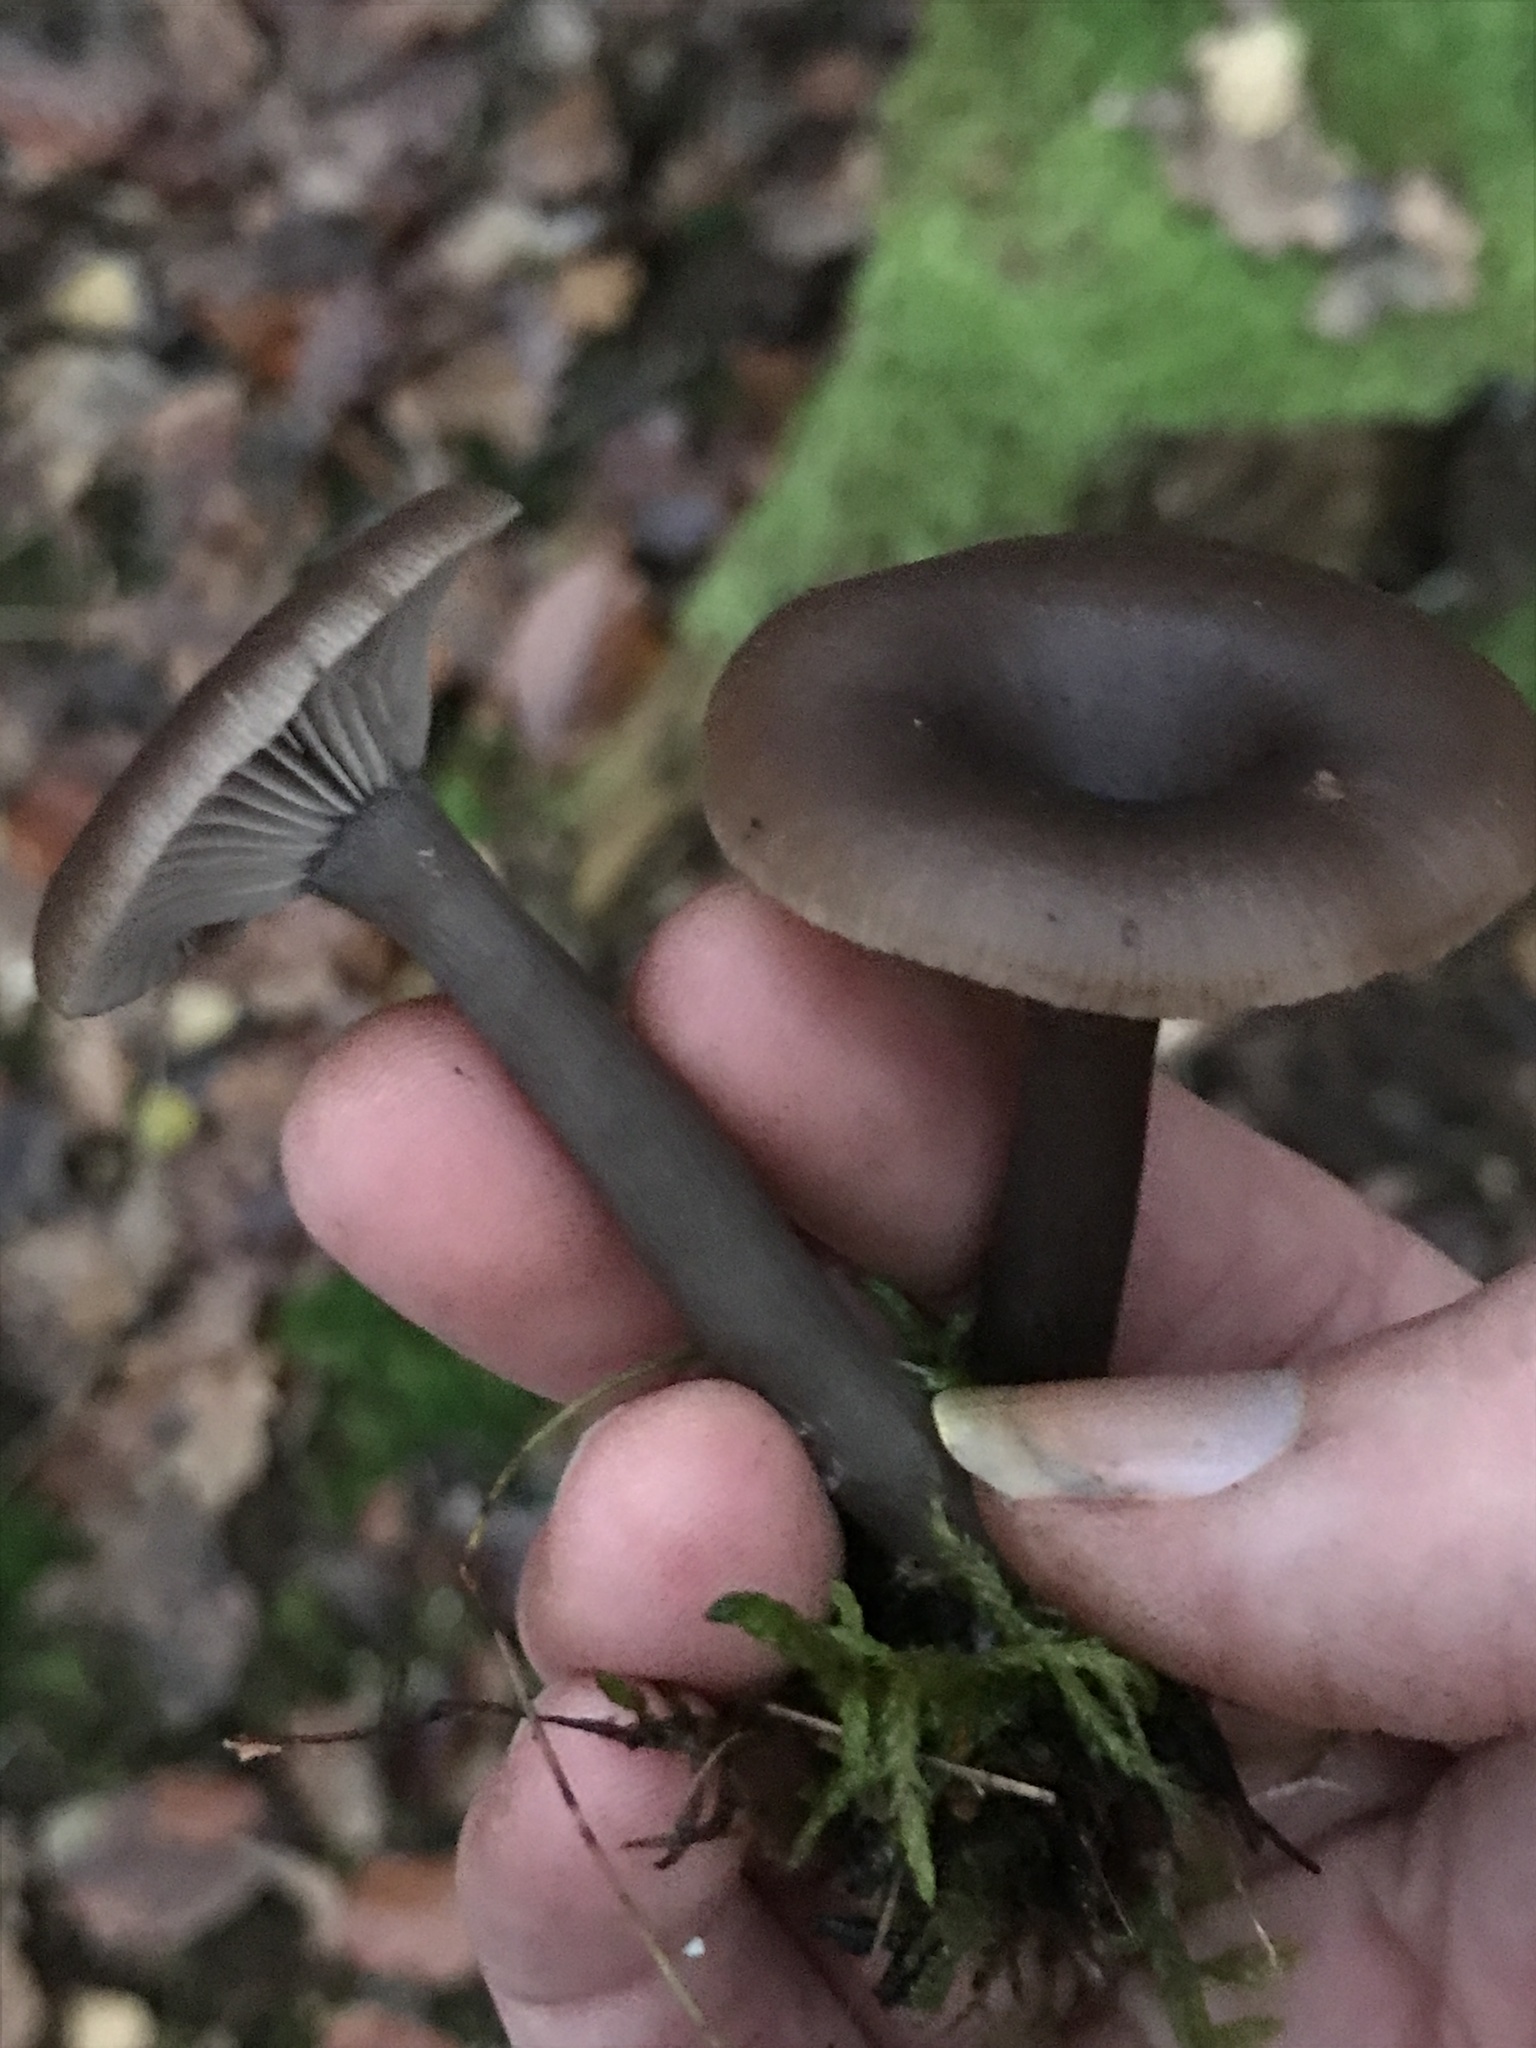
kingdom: Fungi
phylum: Basidiomycota
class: Agaricomycetes
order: Agaricales
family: Pseudoclitocybaceae
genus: Pseudoclitocybe
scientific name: Pseudoclitocybe cyathiformis
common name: Goblet
